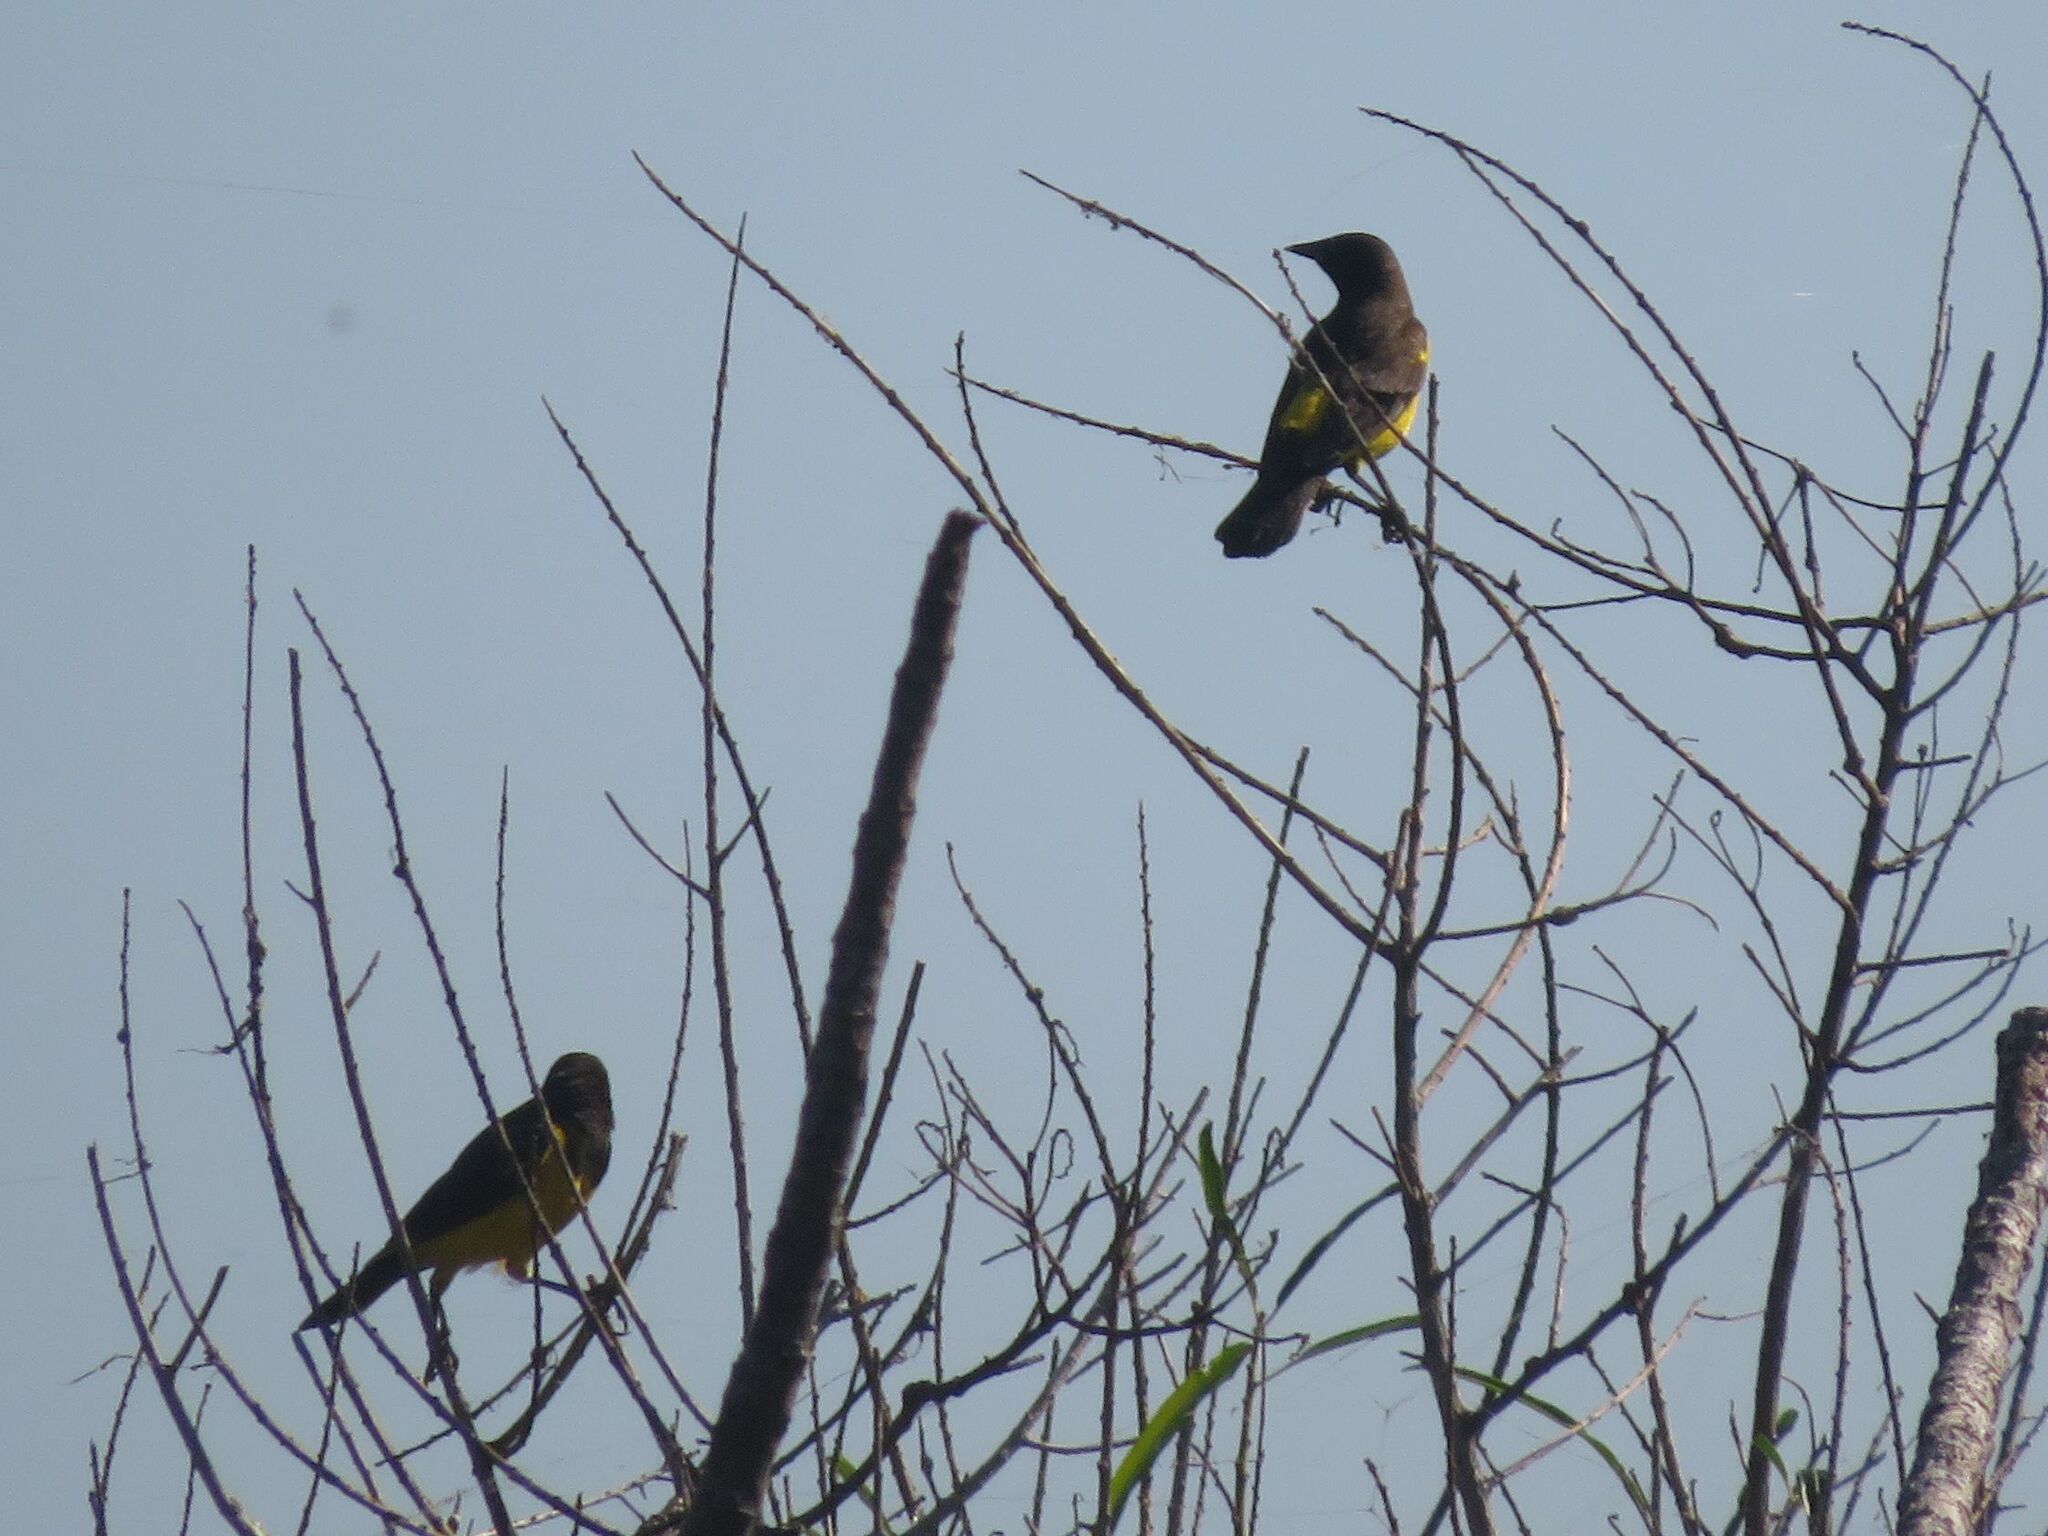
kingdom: Animalia
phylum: Chordata
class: Aves
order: Passeriformes
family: Icteridae
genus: Pseudoleistes
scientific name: Pseudoleistes guirahuro
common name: Yellow-rumped marshbird
